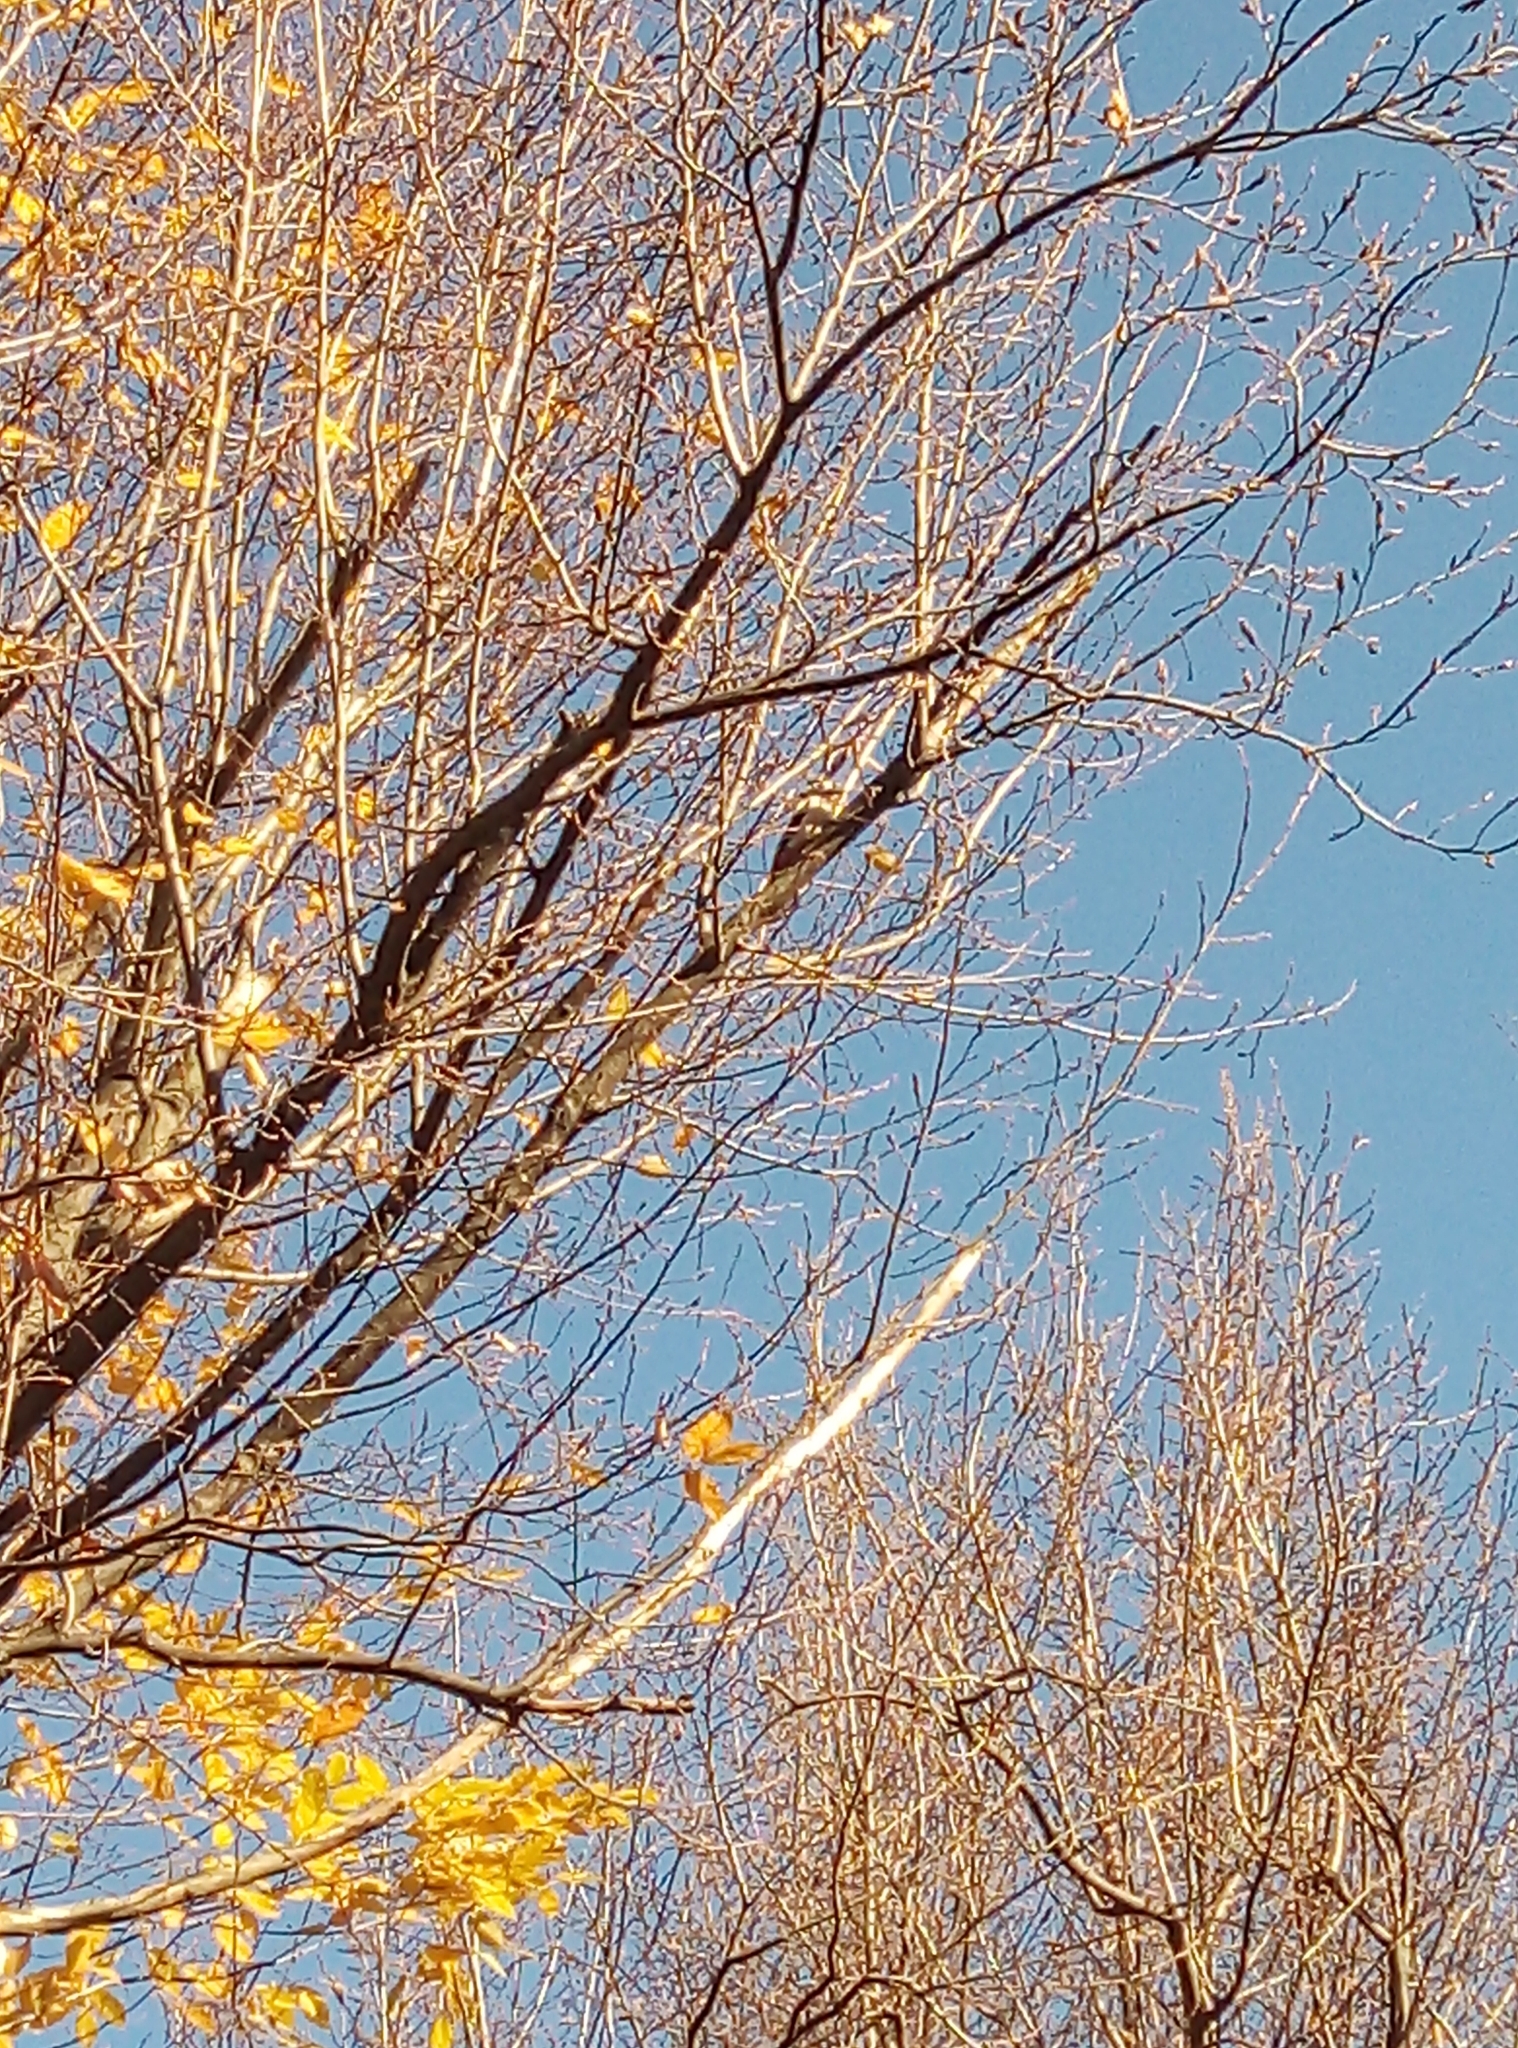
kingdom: Animalia
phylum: Chordata
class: Aves
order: Piciformes
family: Picidae
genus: Dendrocopos
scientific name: Dendrocopos major
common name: Great spotted woodpecker
